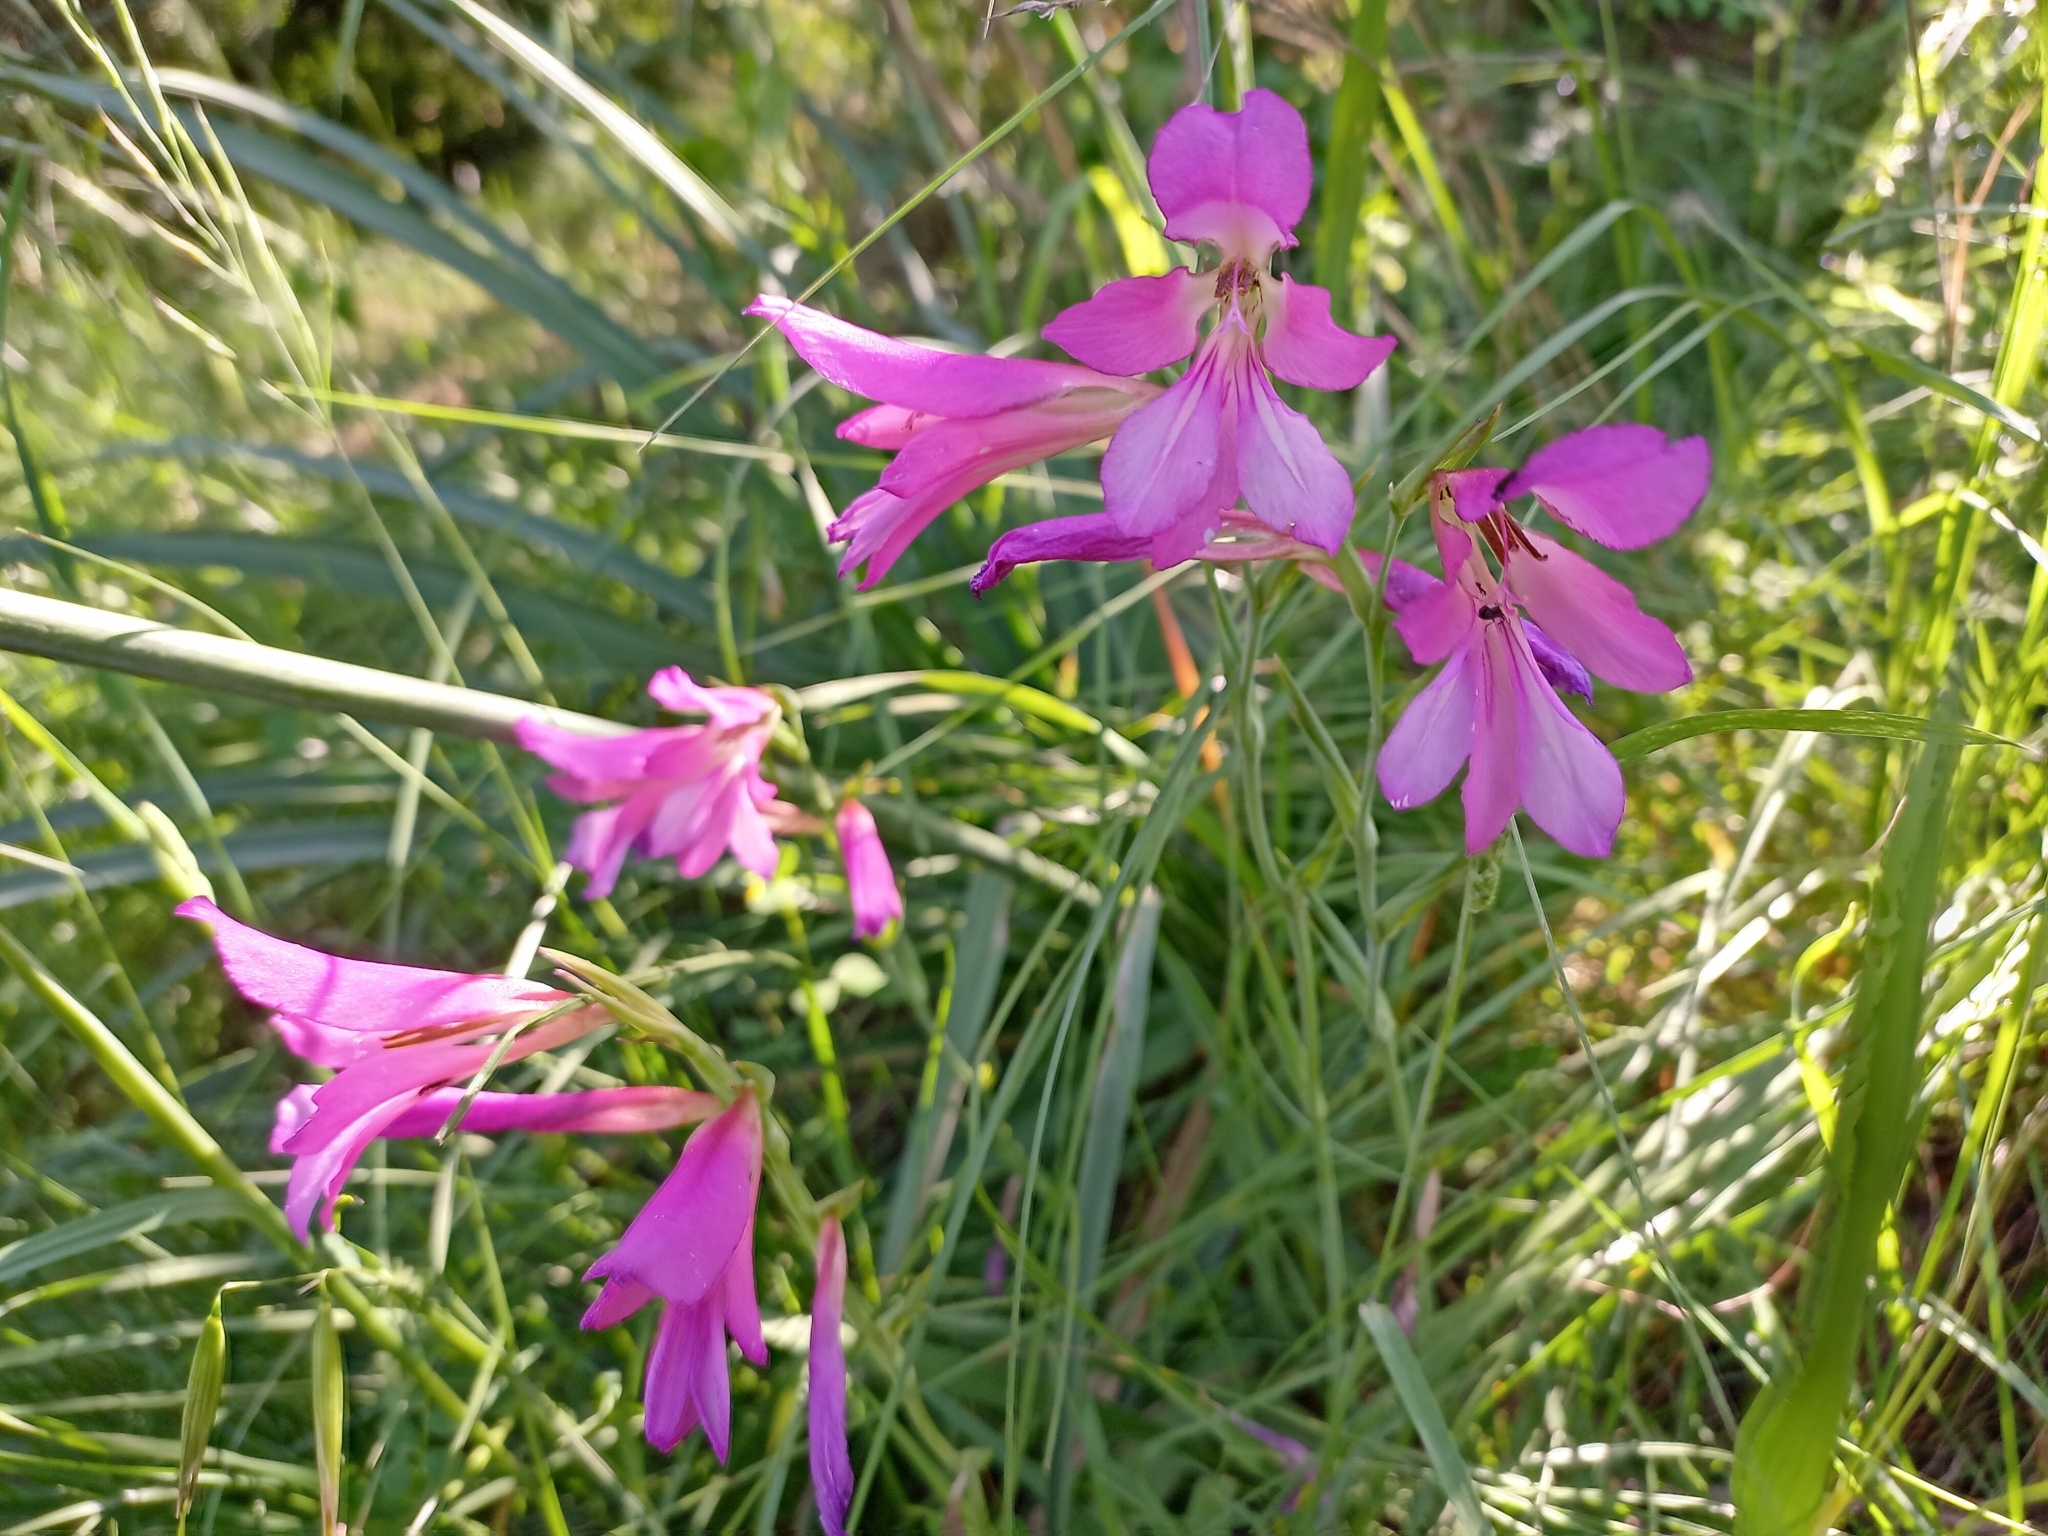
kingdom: Plantae
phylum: Tracheophyta
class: Liliopsida
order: Asparagales
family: Iridaceae
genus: Gladiolus
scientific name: Gladiolus byzantinus
